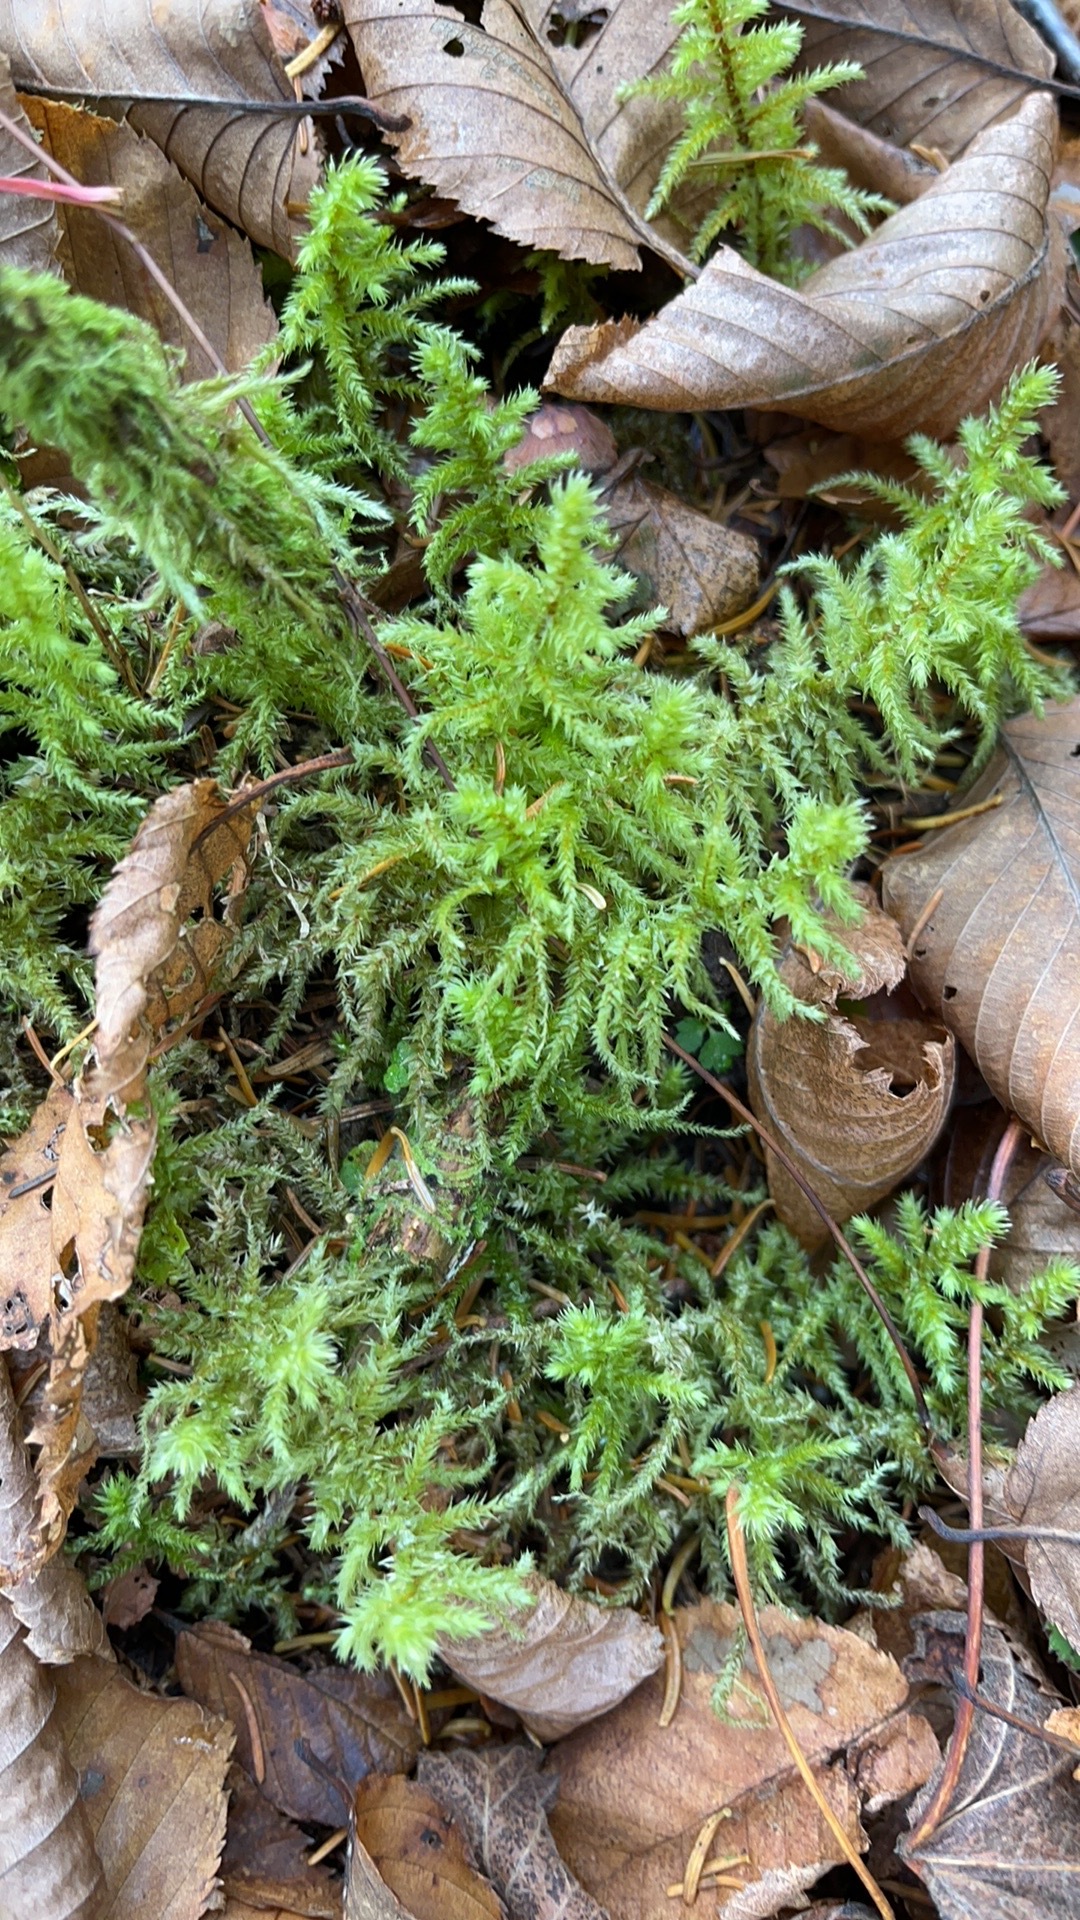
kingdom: Plantae
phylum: Bryophyta
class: Bryopsida
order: Hypnales
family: Hylocomiaceae
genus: Hylocomiadelphus
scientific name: Hylocomiadelphus triquetrus
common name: Rough goose neck moss
